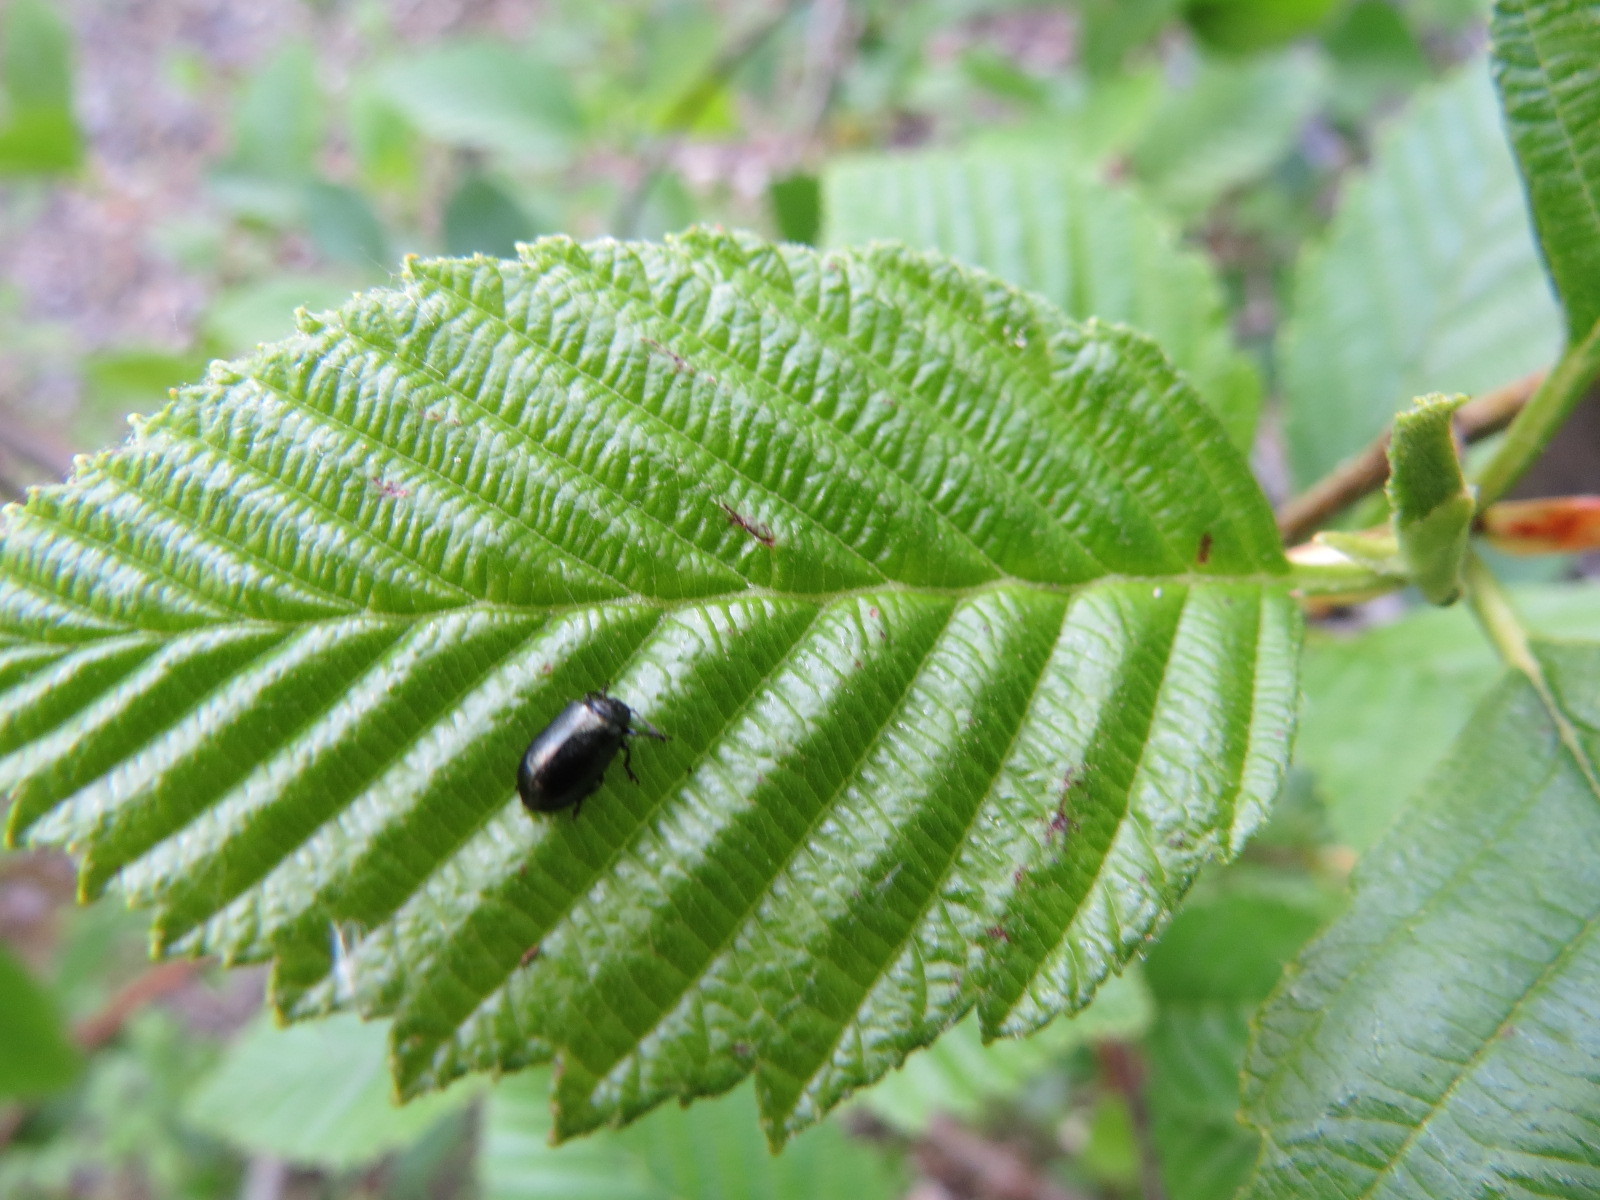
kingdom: Animalia
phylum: Arthropoda
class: Insecta
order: Coleoptera
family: Chrysomelidae
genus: Plagiodera
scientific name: Plagiodera californica
